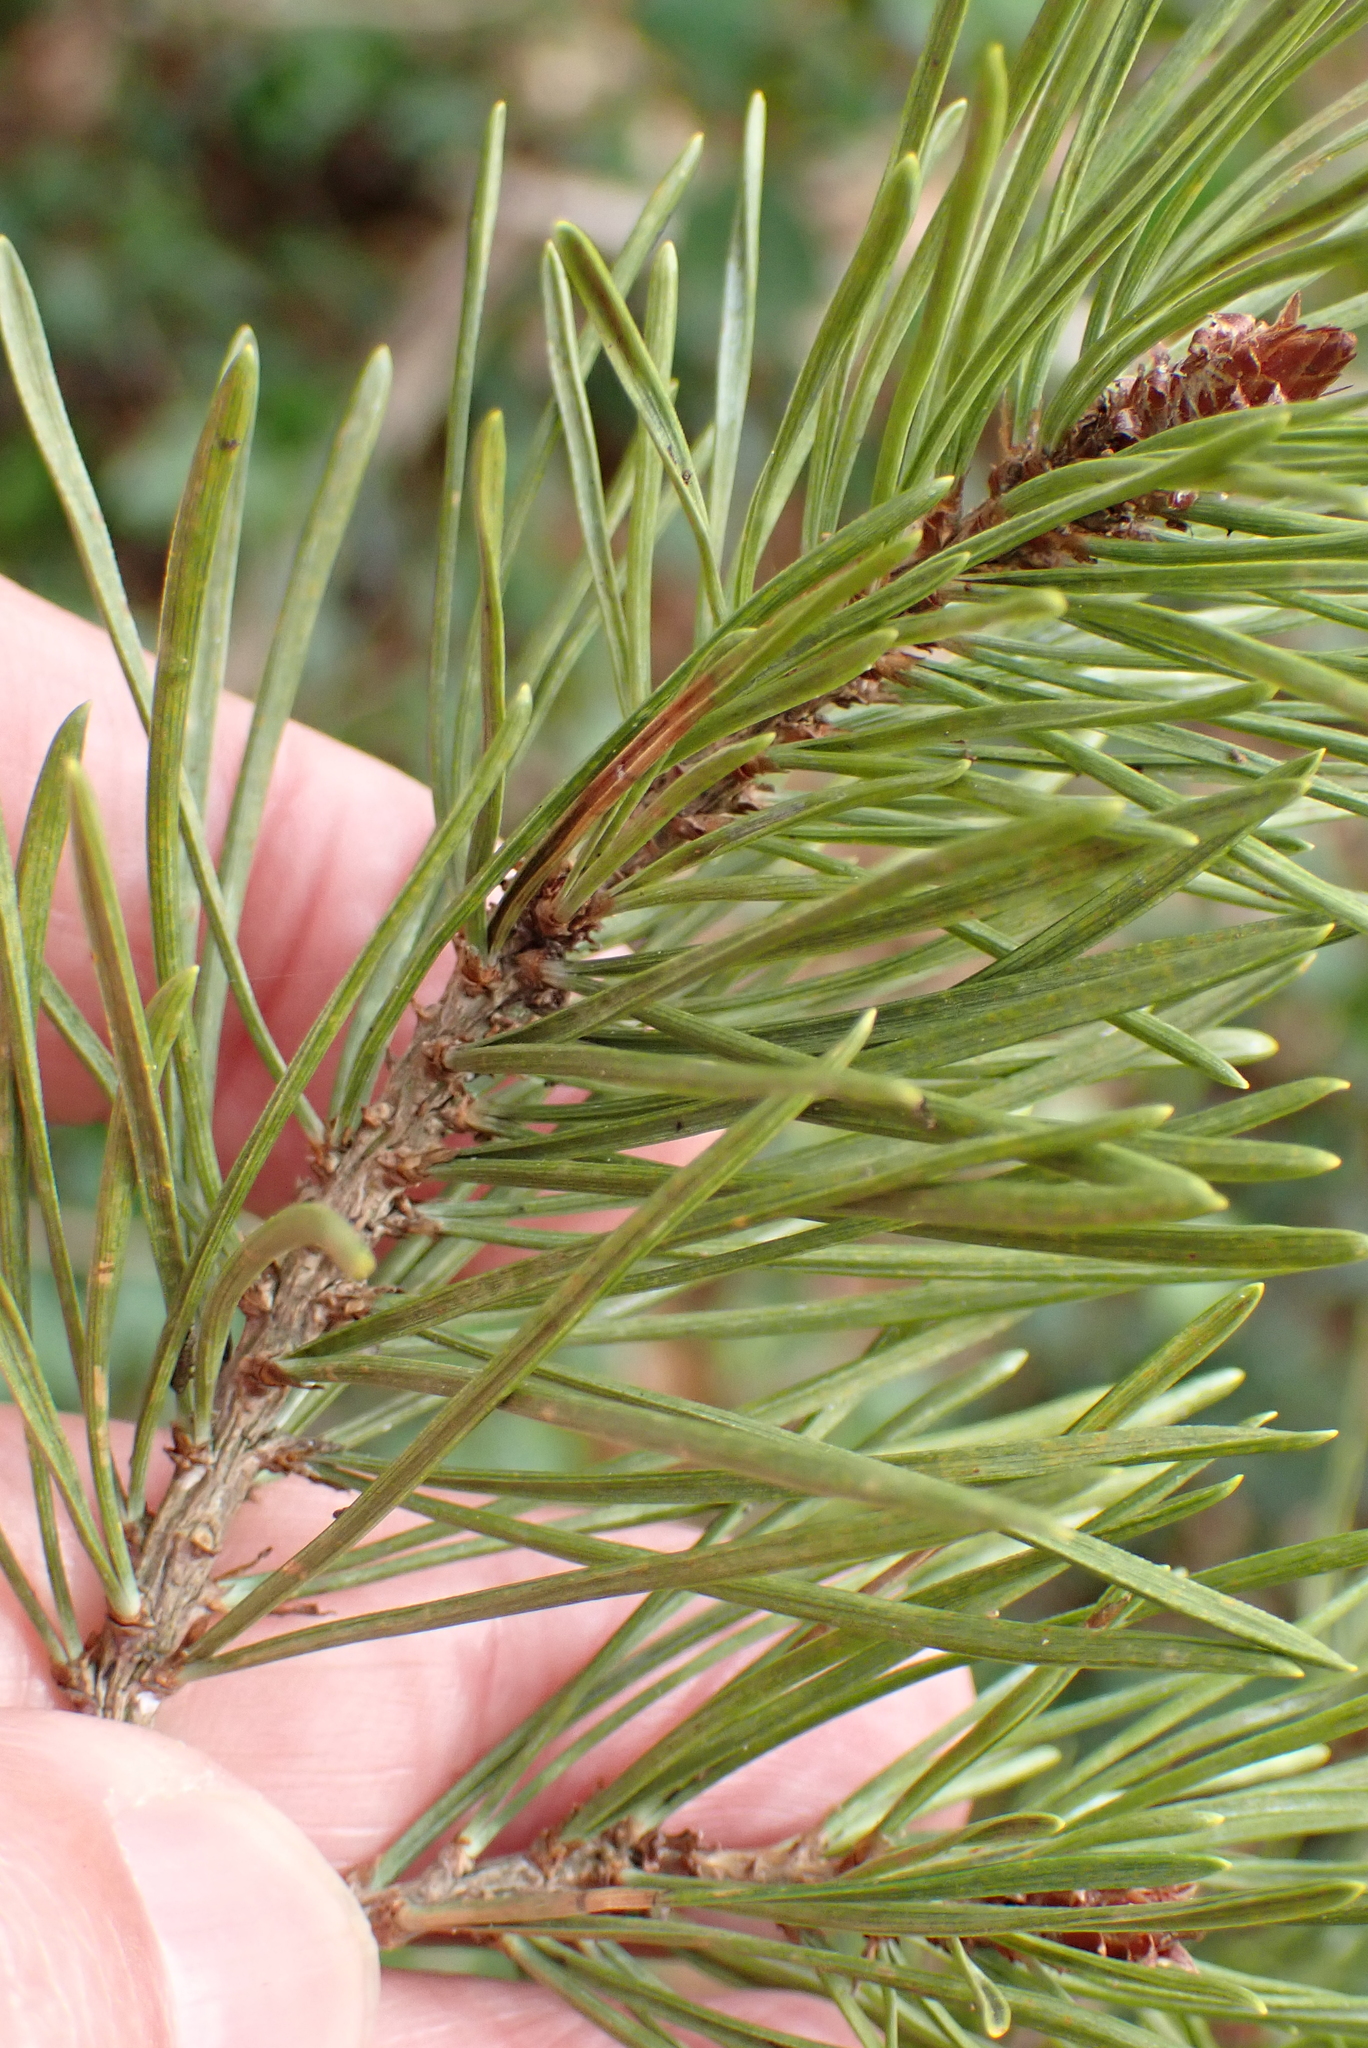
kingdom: Plantae
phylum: Tracheophyta
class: Pinopsida
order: Pinales
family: Pinaceae
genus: Pinus
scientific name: Pinus sylvestris
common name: Scots pine
